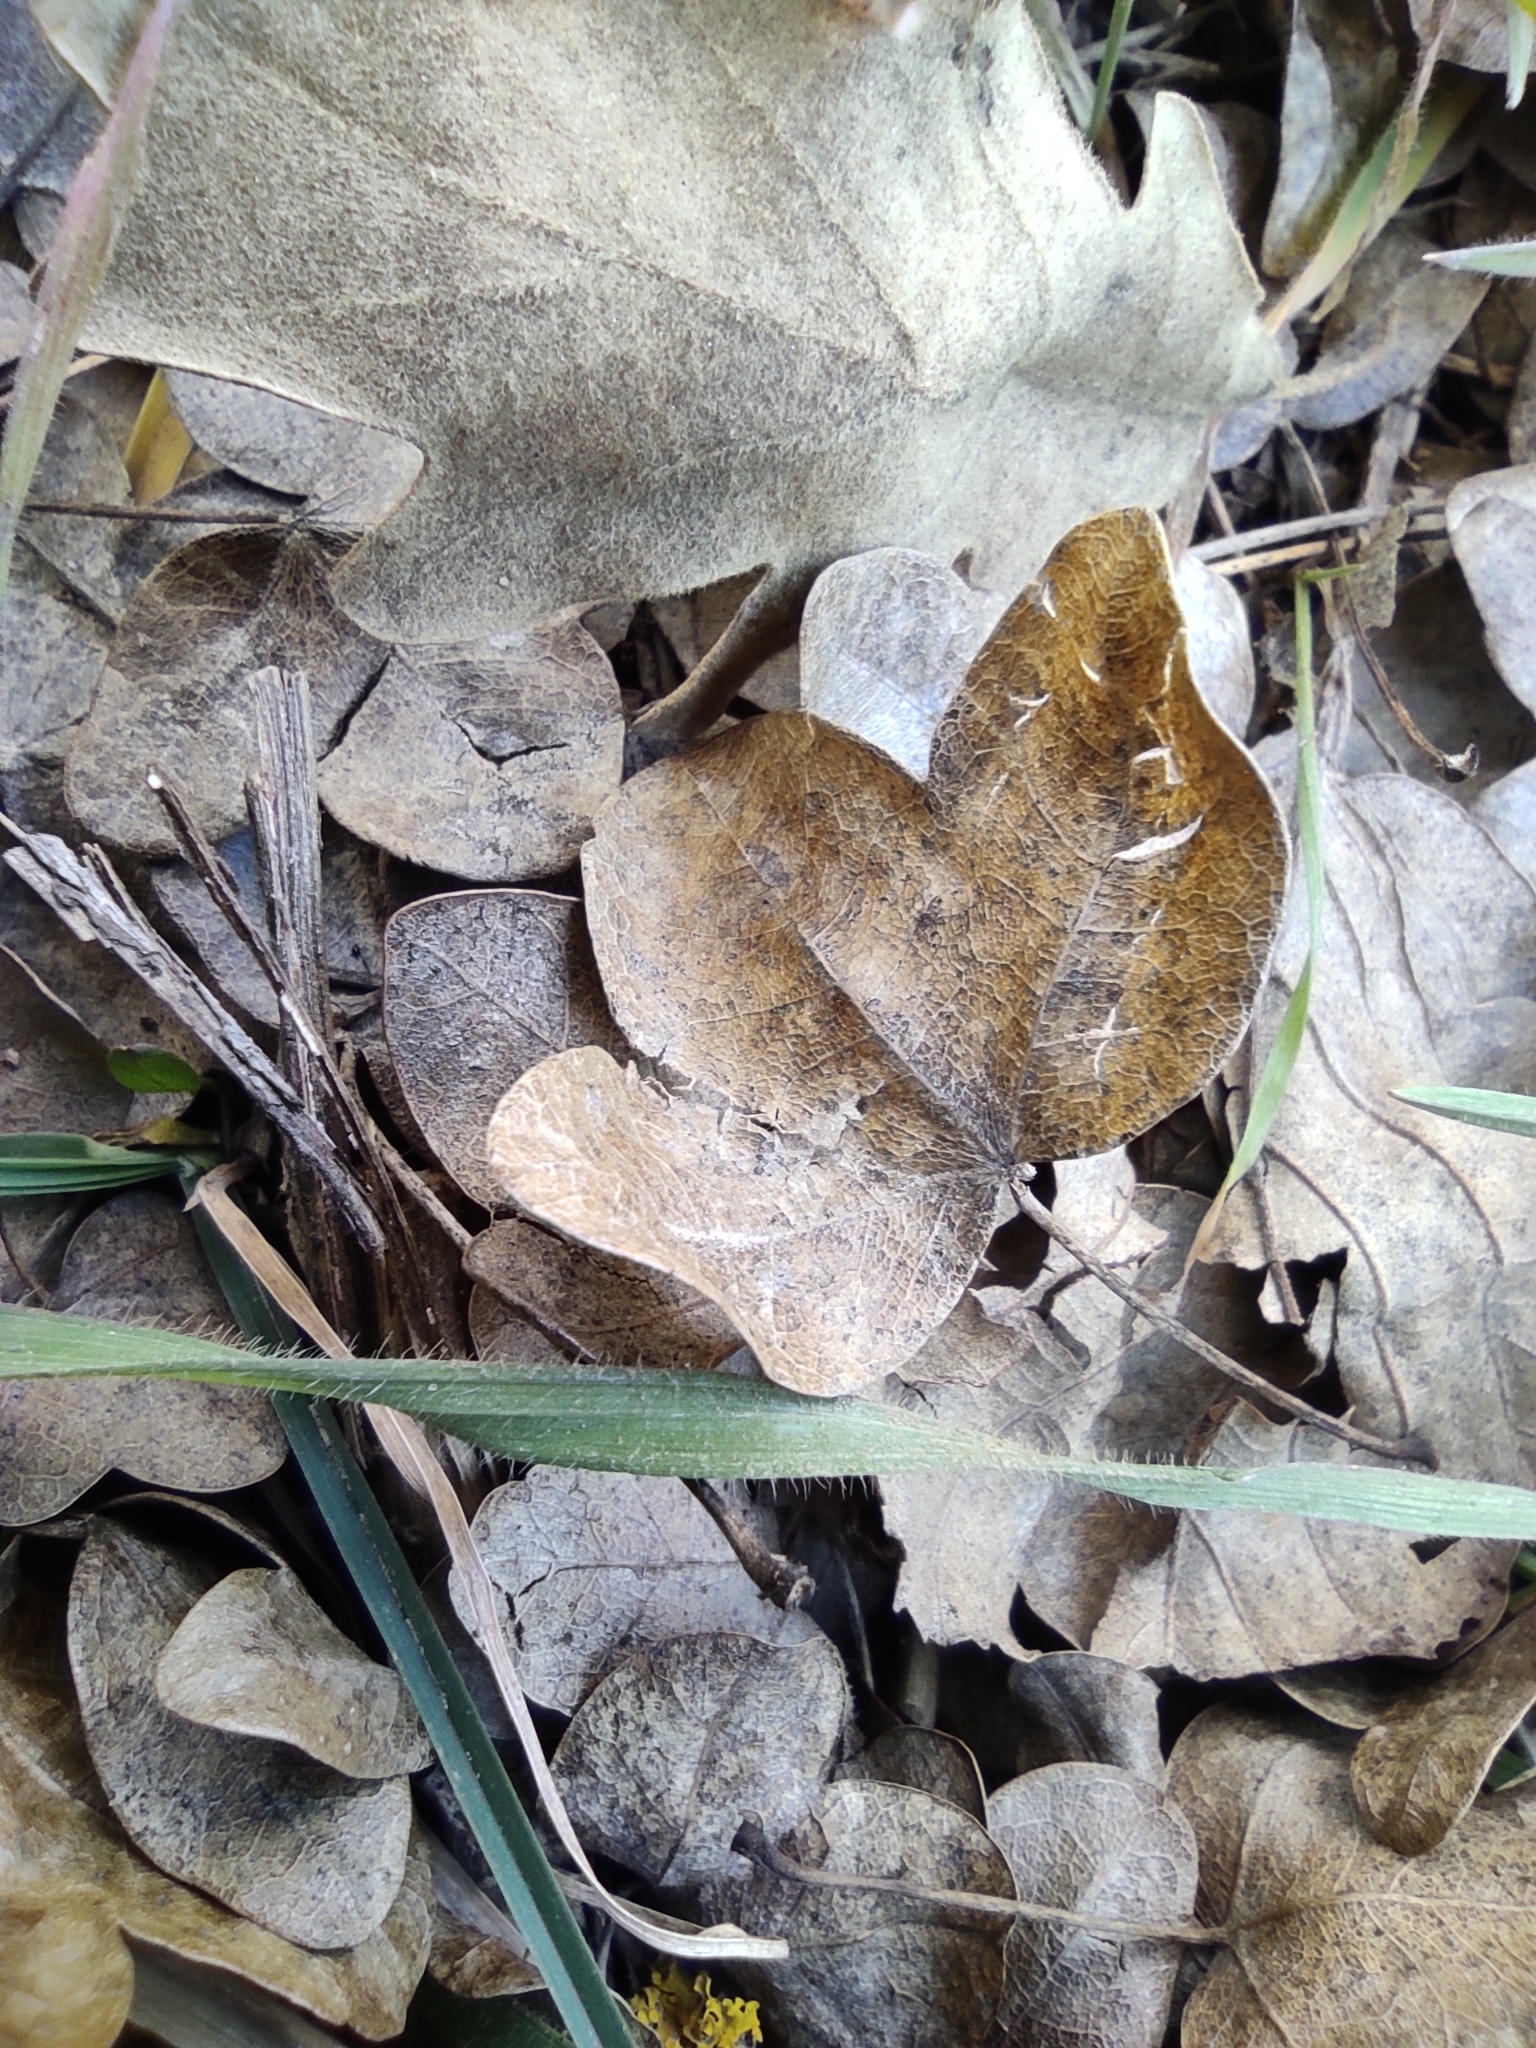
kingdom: Plantae
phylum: Tracheophyta
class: Magnoliopsida
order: Sapindales
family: Sapindaceae
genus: Acer
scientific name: Acer monspessulanum
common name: Montpellier maple
